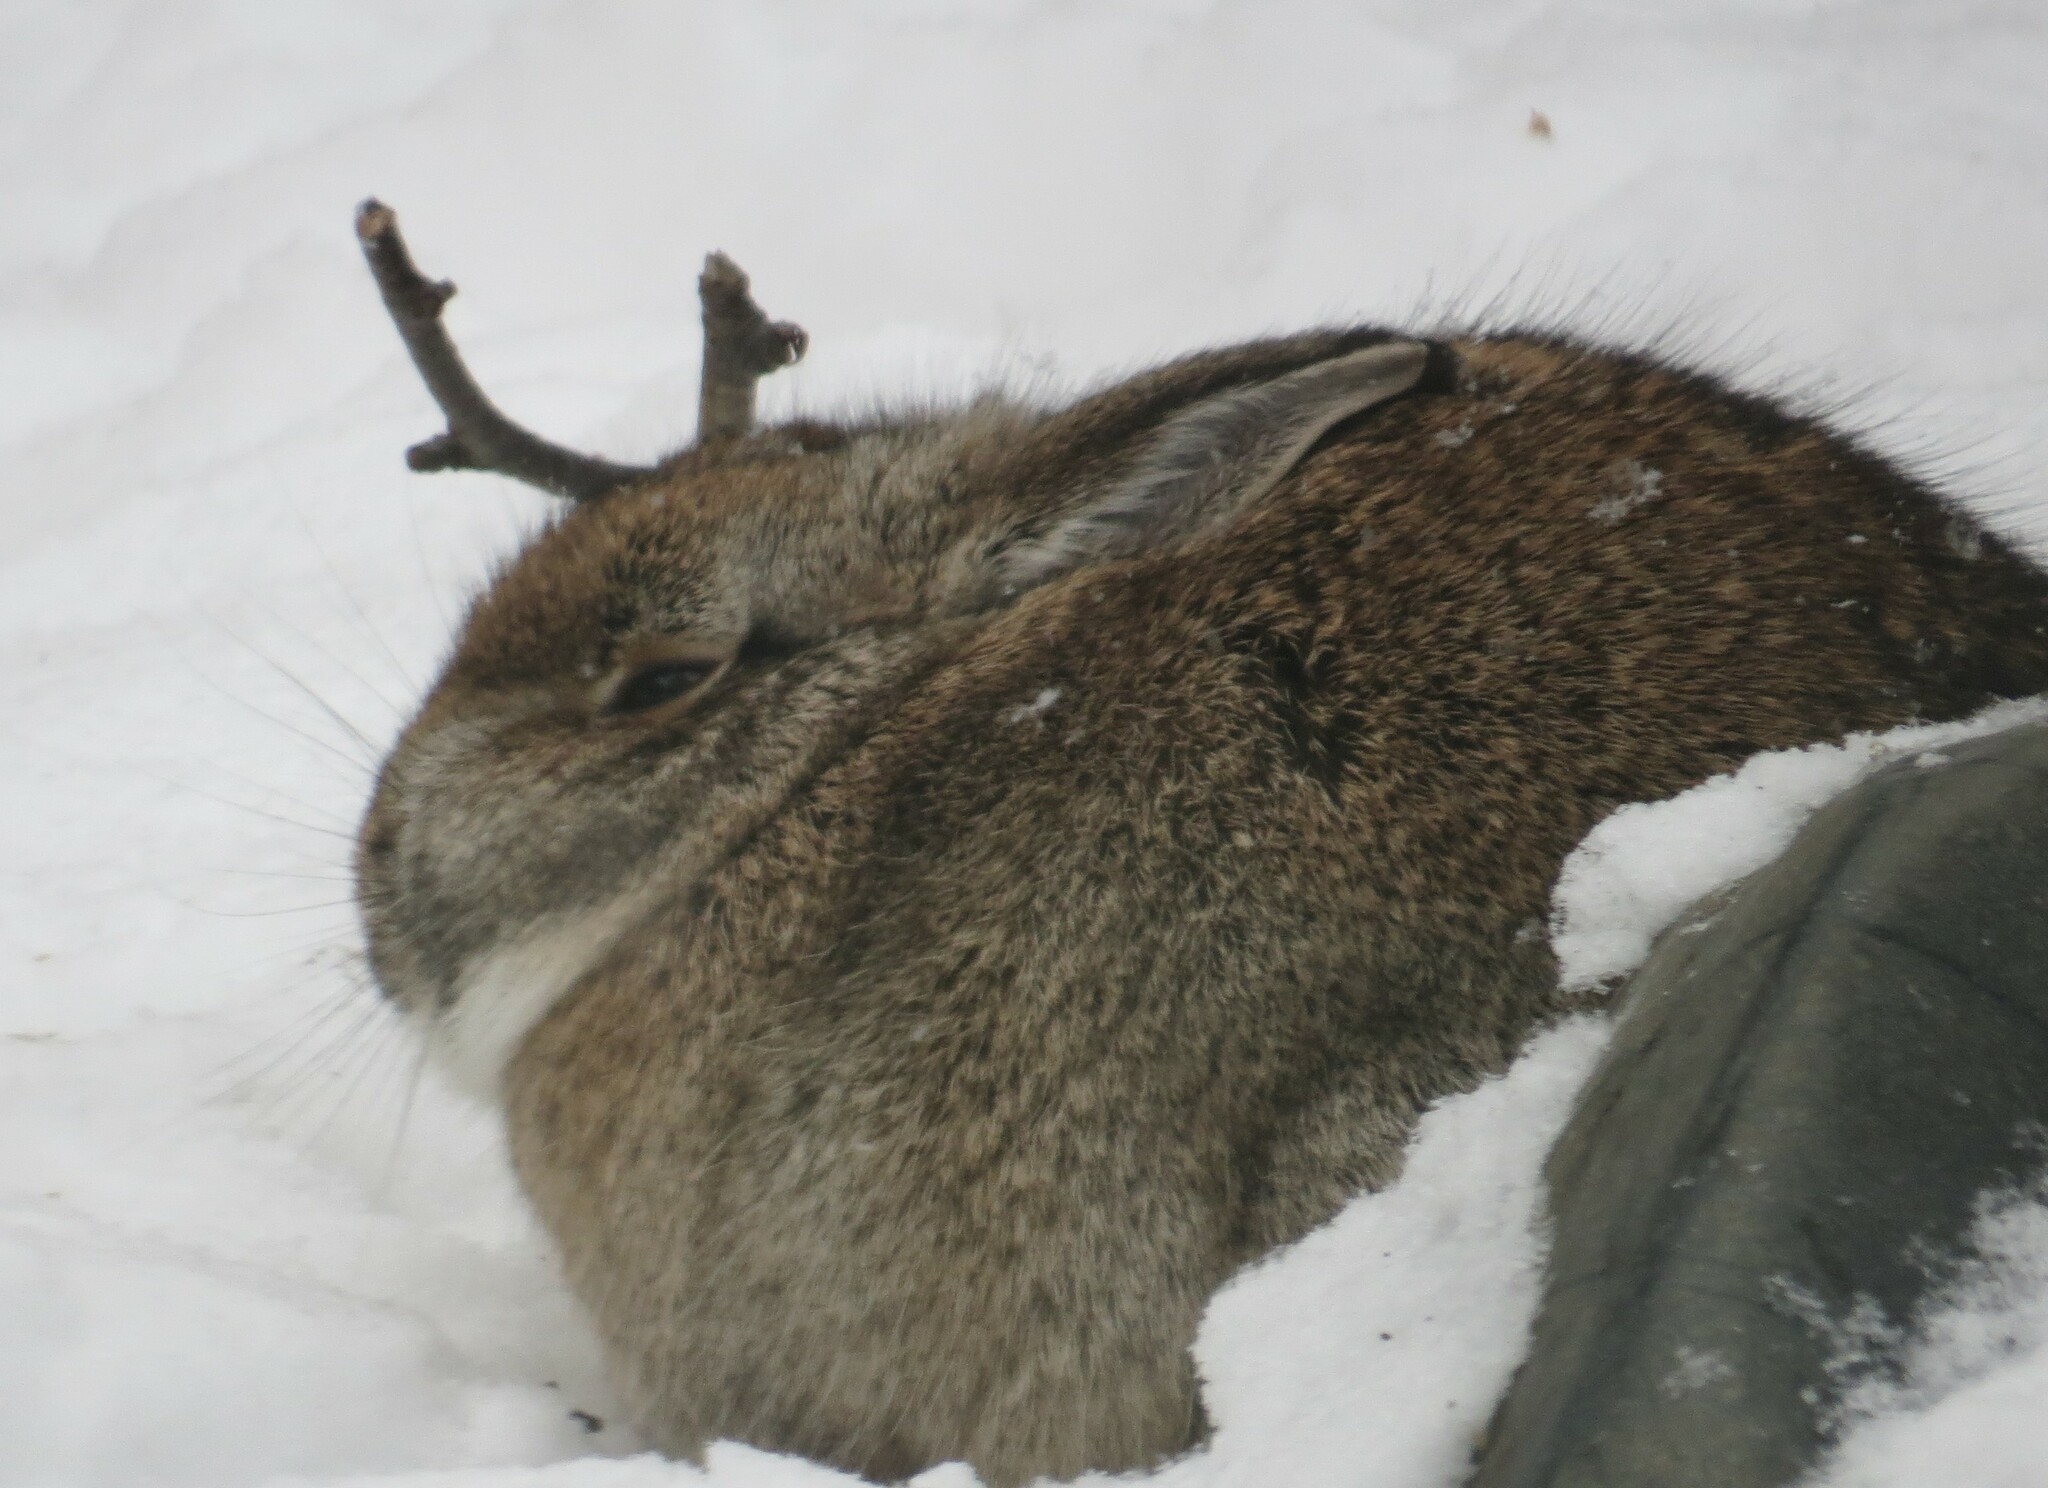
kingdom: Animalia
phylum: Chordata
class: Mammalia
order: Lagomorpha
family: Leporidae
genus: Sylvilagus
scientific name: Sylvilagus floridanus
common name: Eastern cottontail
